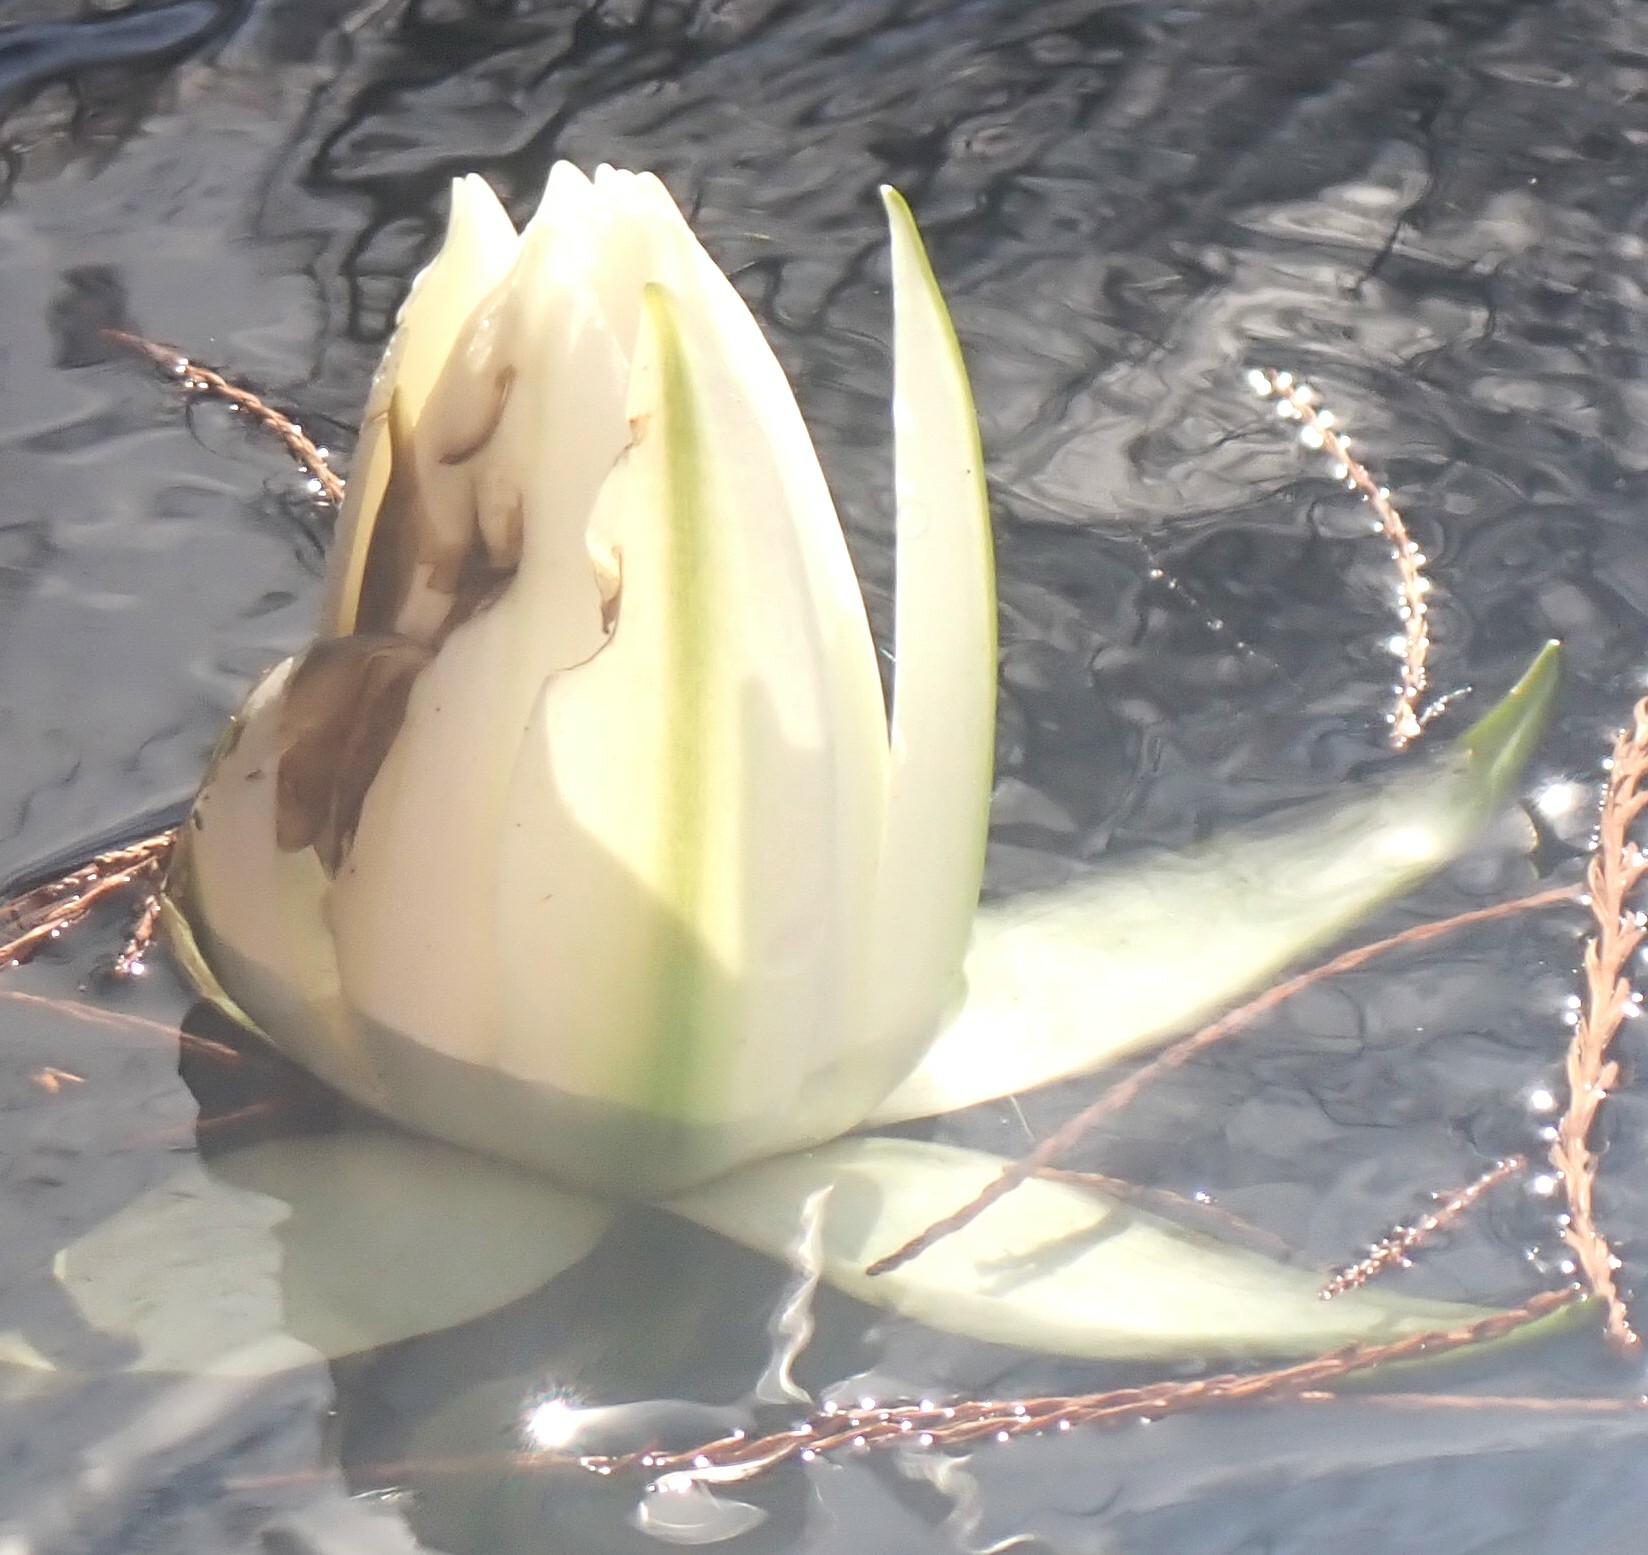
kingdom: Plantae
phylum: Tracheophyta
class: Magnoliopsida
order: Nymphaeales
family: Nymphaeaceae
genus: Nymphaea
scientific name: Nymphaea odorata
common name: Fragrant water-lily
